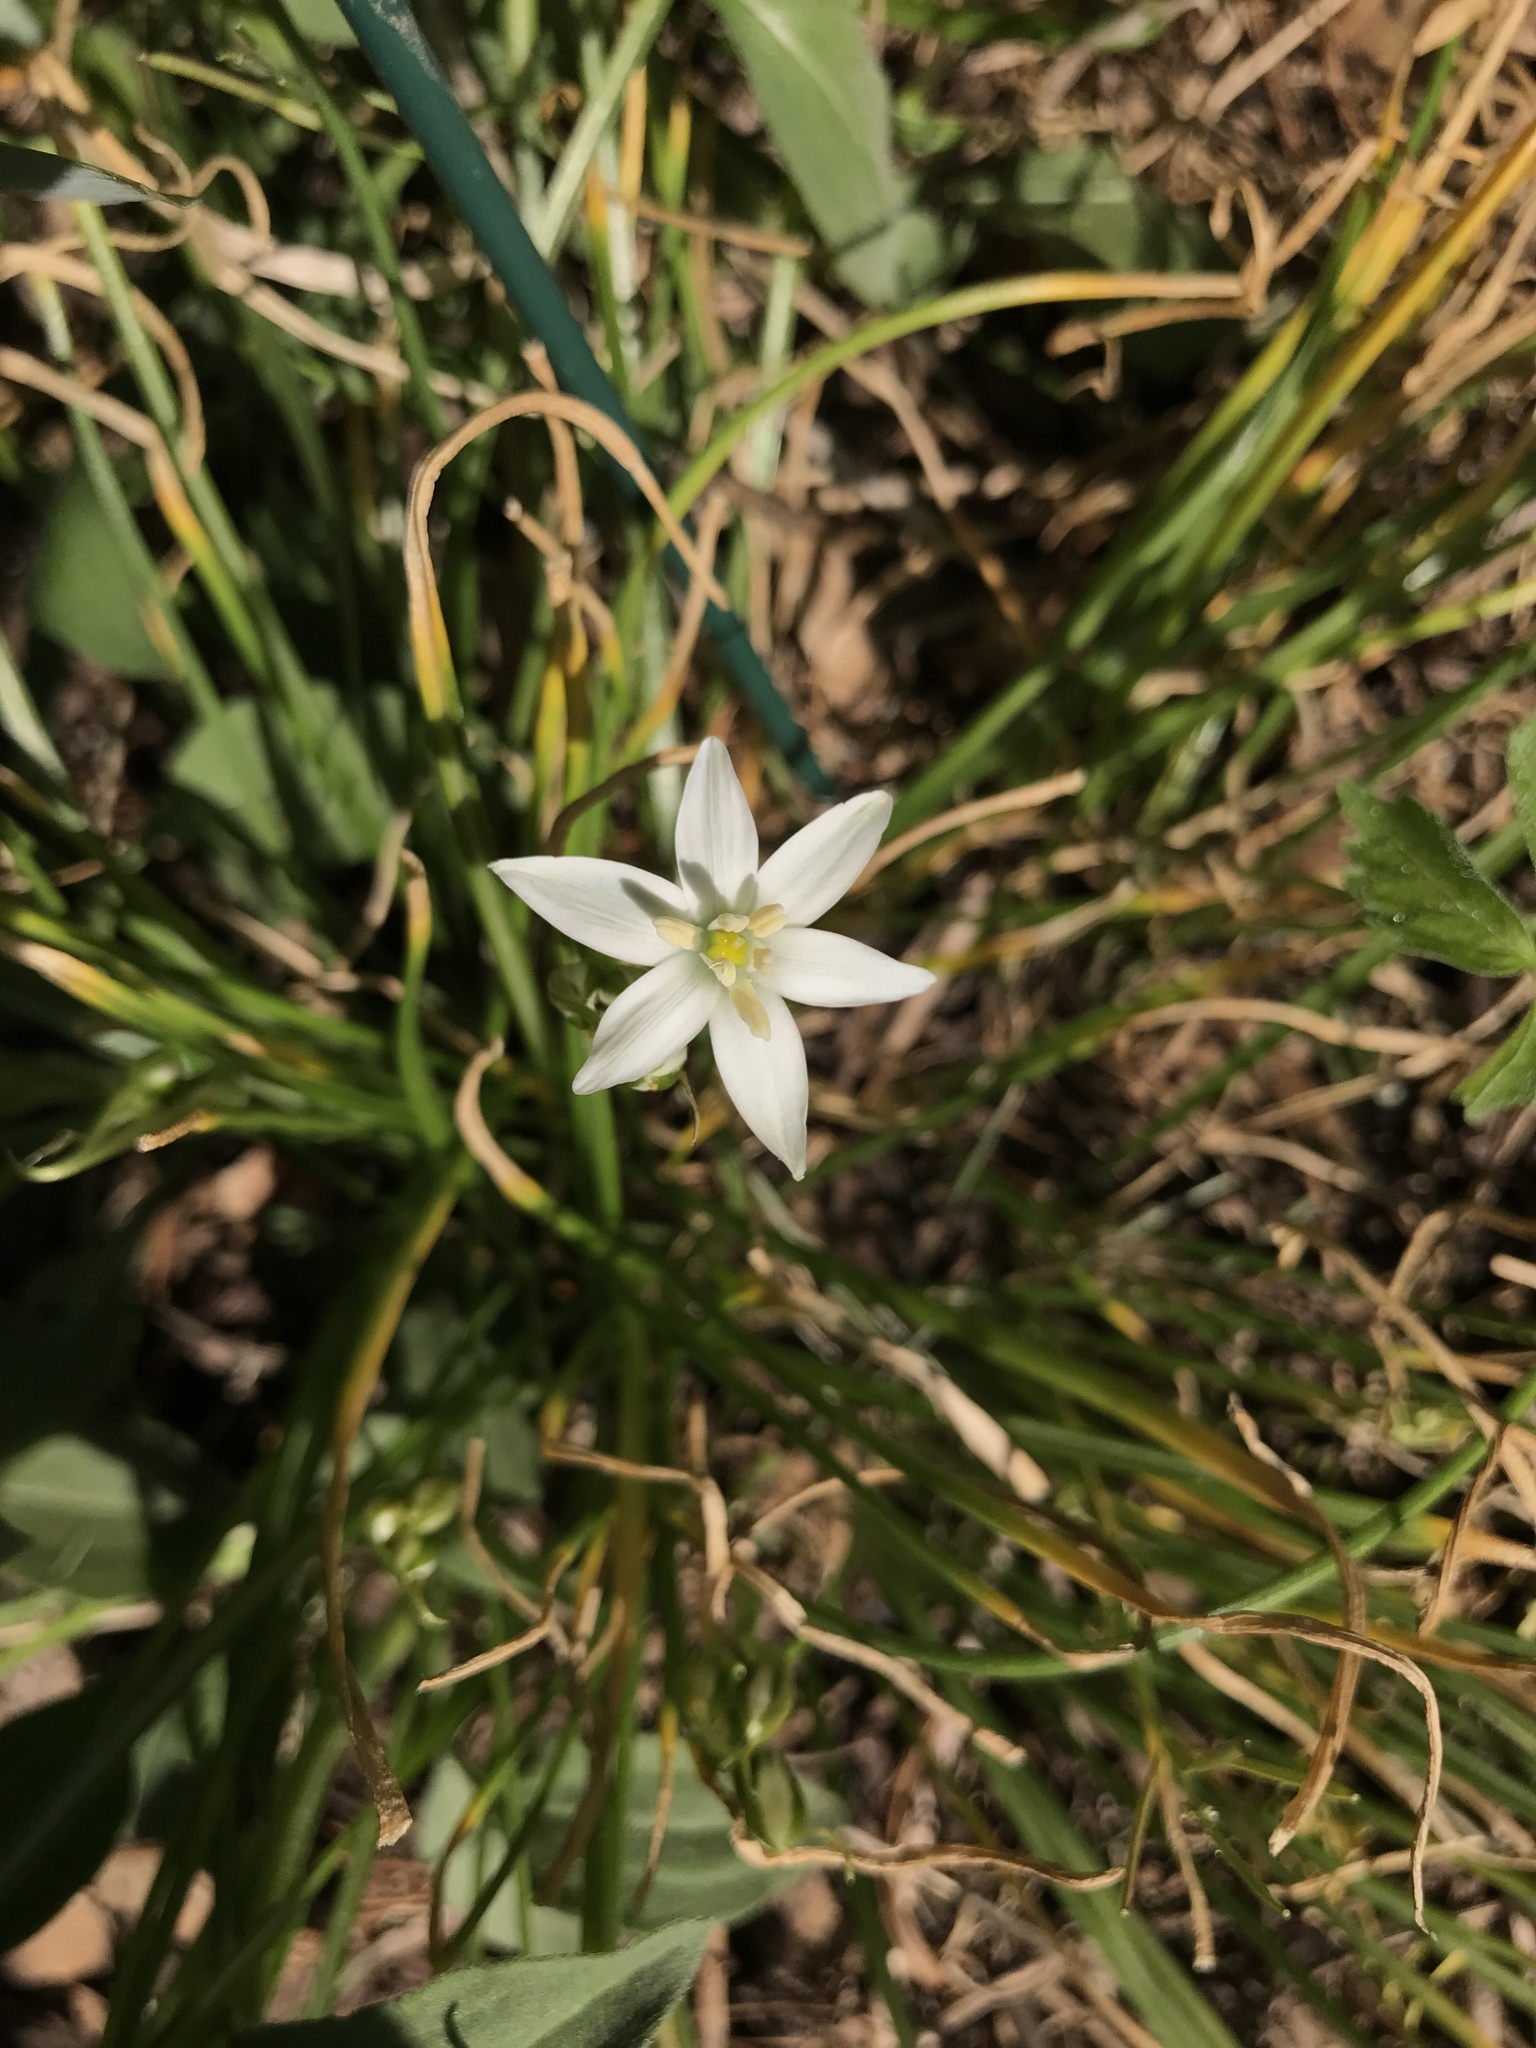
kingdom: Plantae
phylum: Tracheophyta
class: Liliopsida
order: Asparagales
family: Asparagaceae
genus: Ornithogalum
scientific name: Ornithogalum umbellatum
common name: Garden star-of-bethlehem
